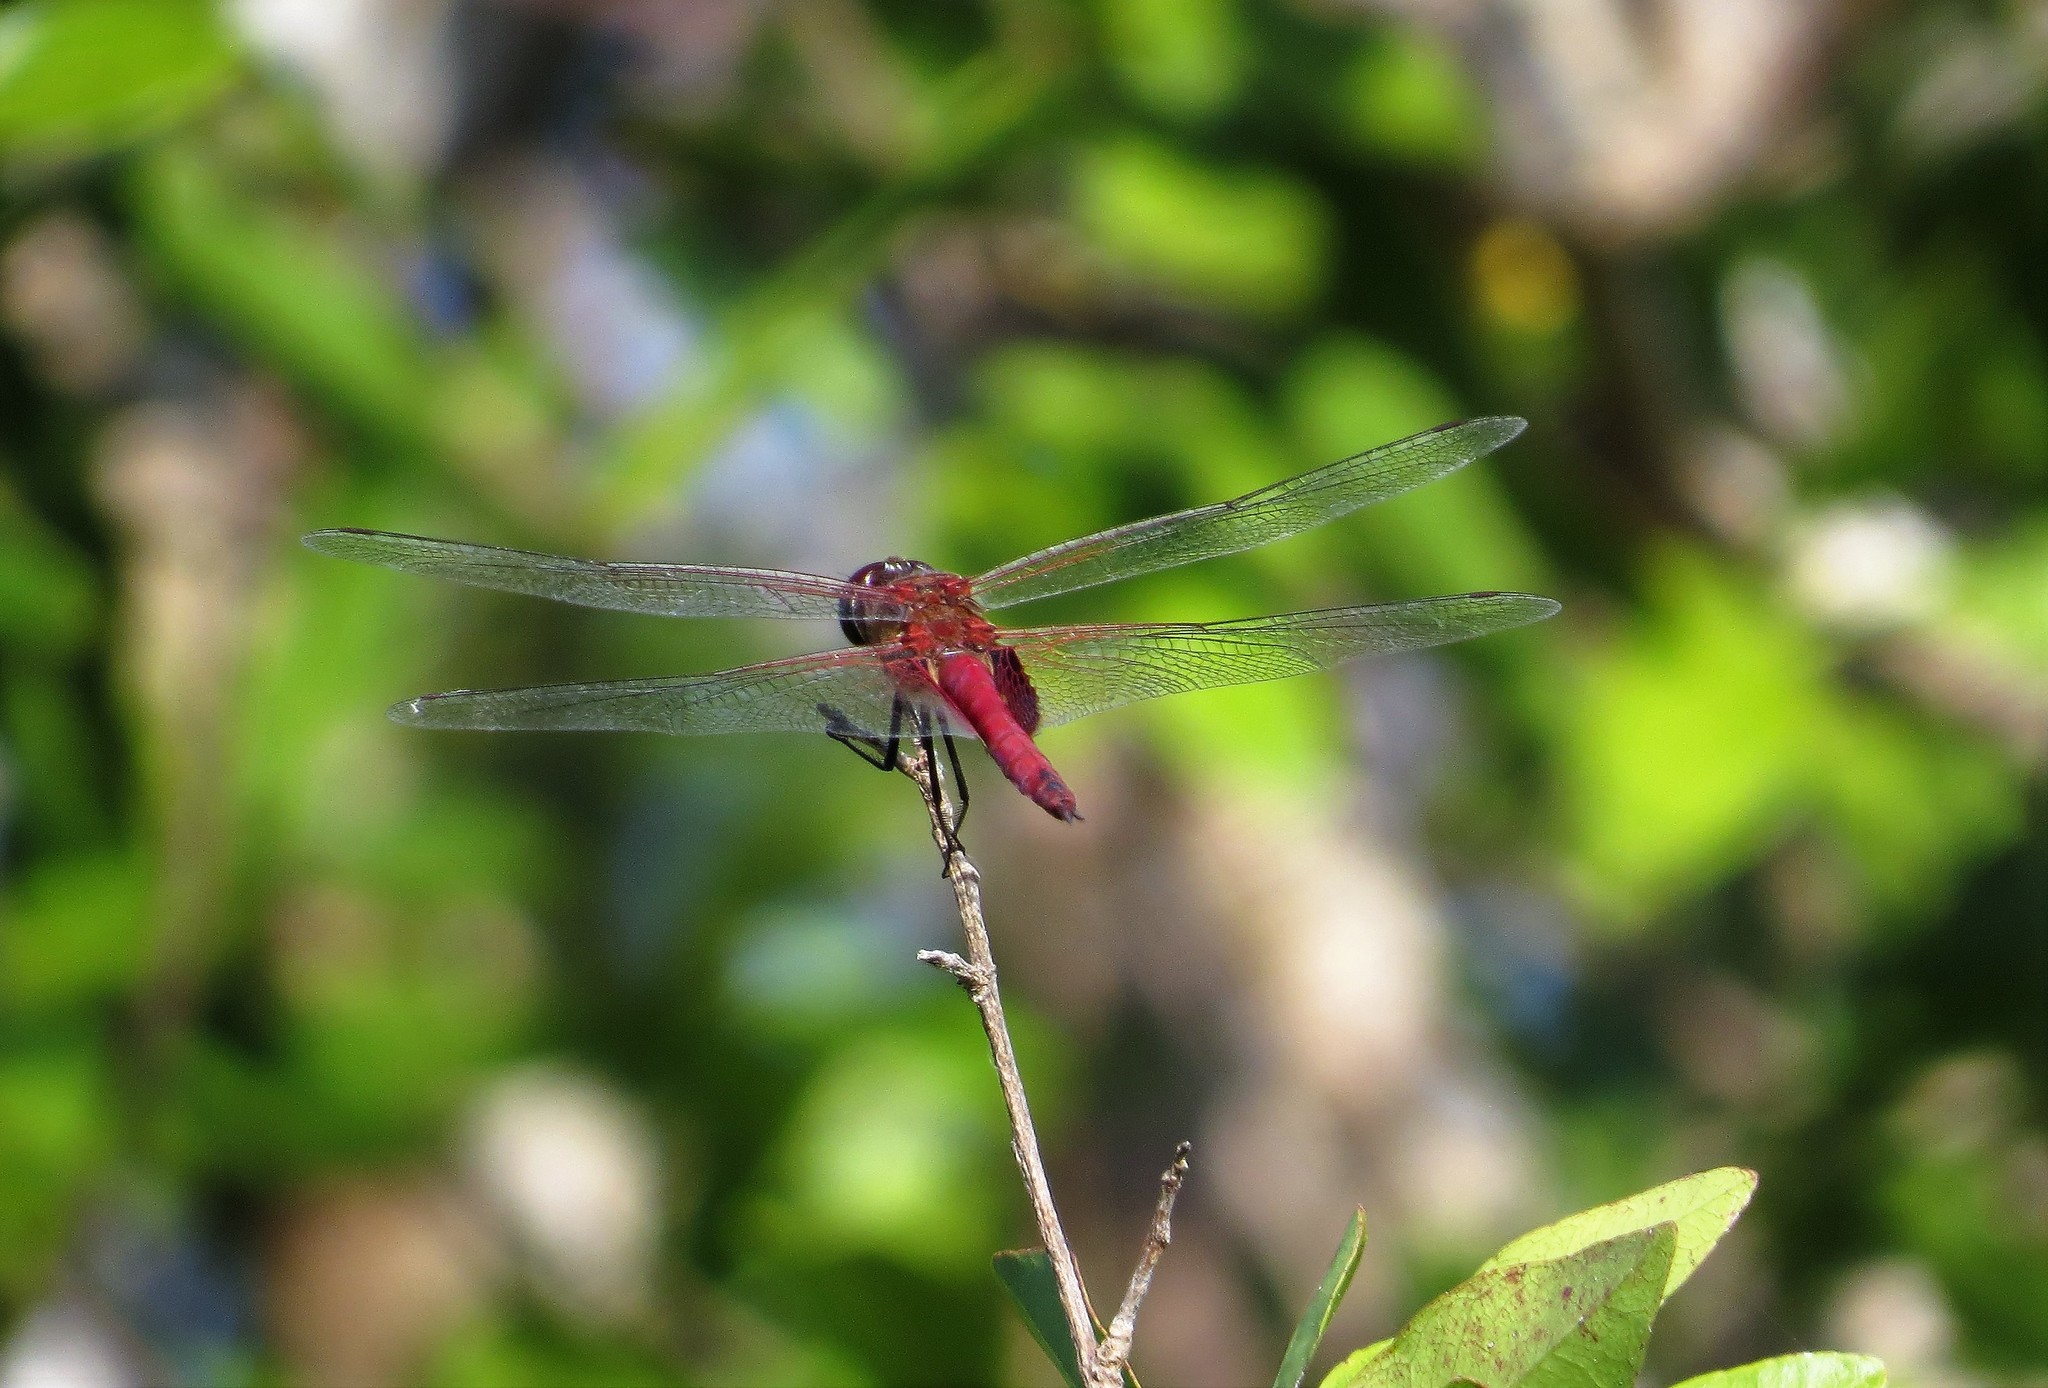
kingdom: Animalia
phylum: Arthropoda
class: Insecta
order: Odonata
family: Libellulidae
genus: Tramea
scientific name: Tramea abdominalis
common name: Vermilion saddlebags
